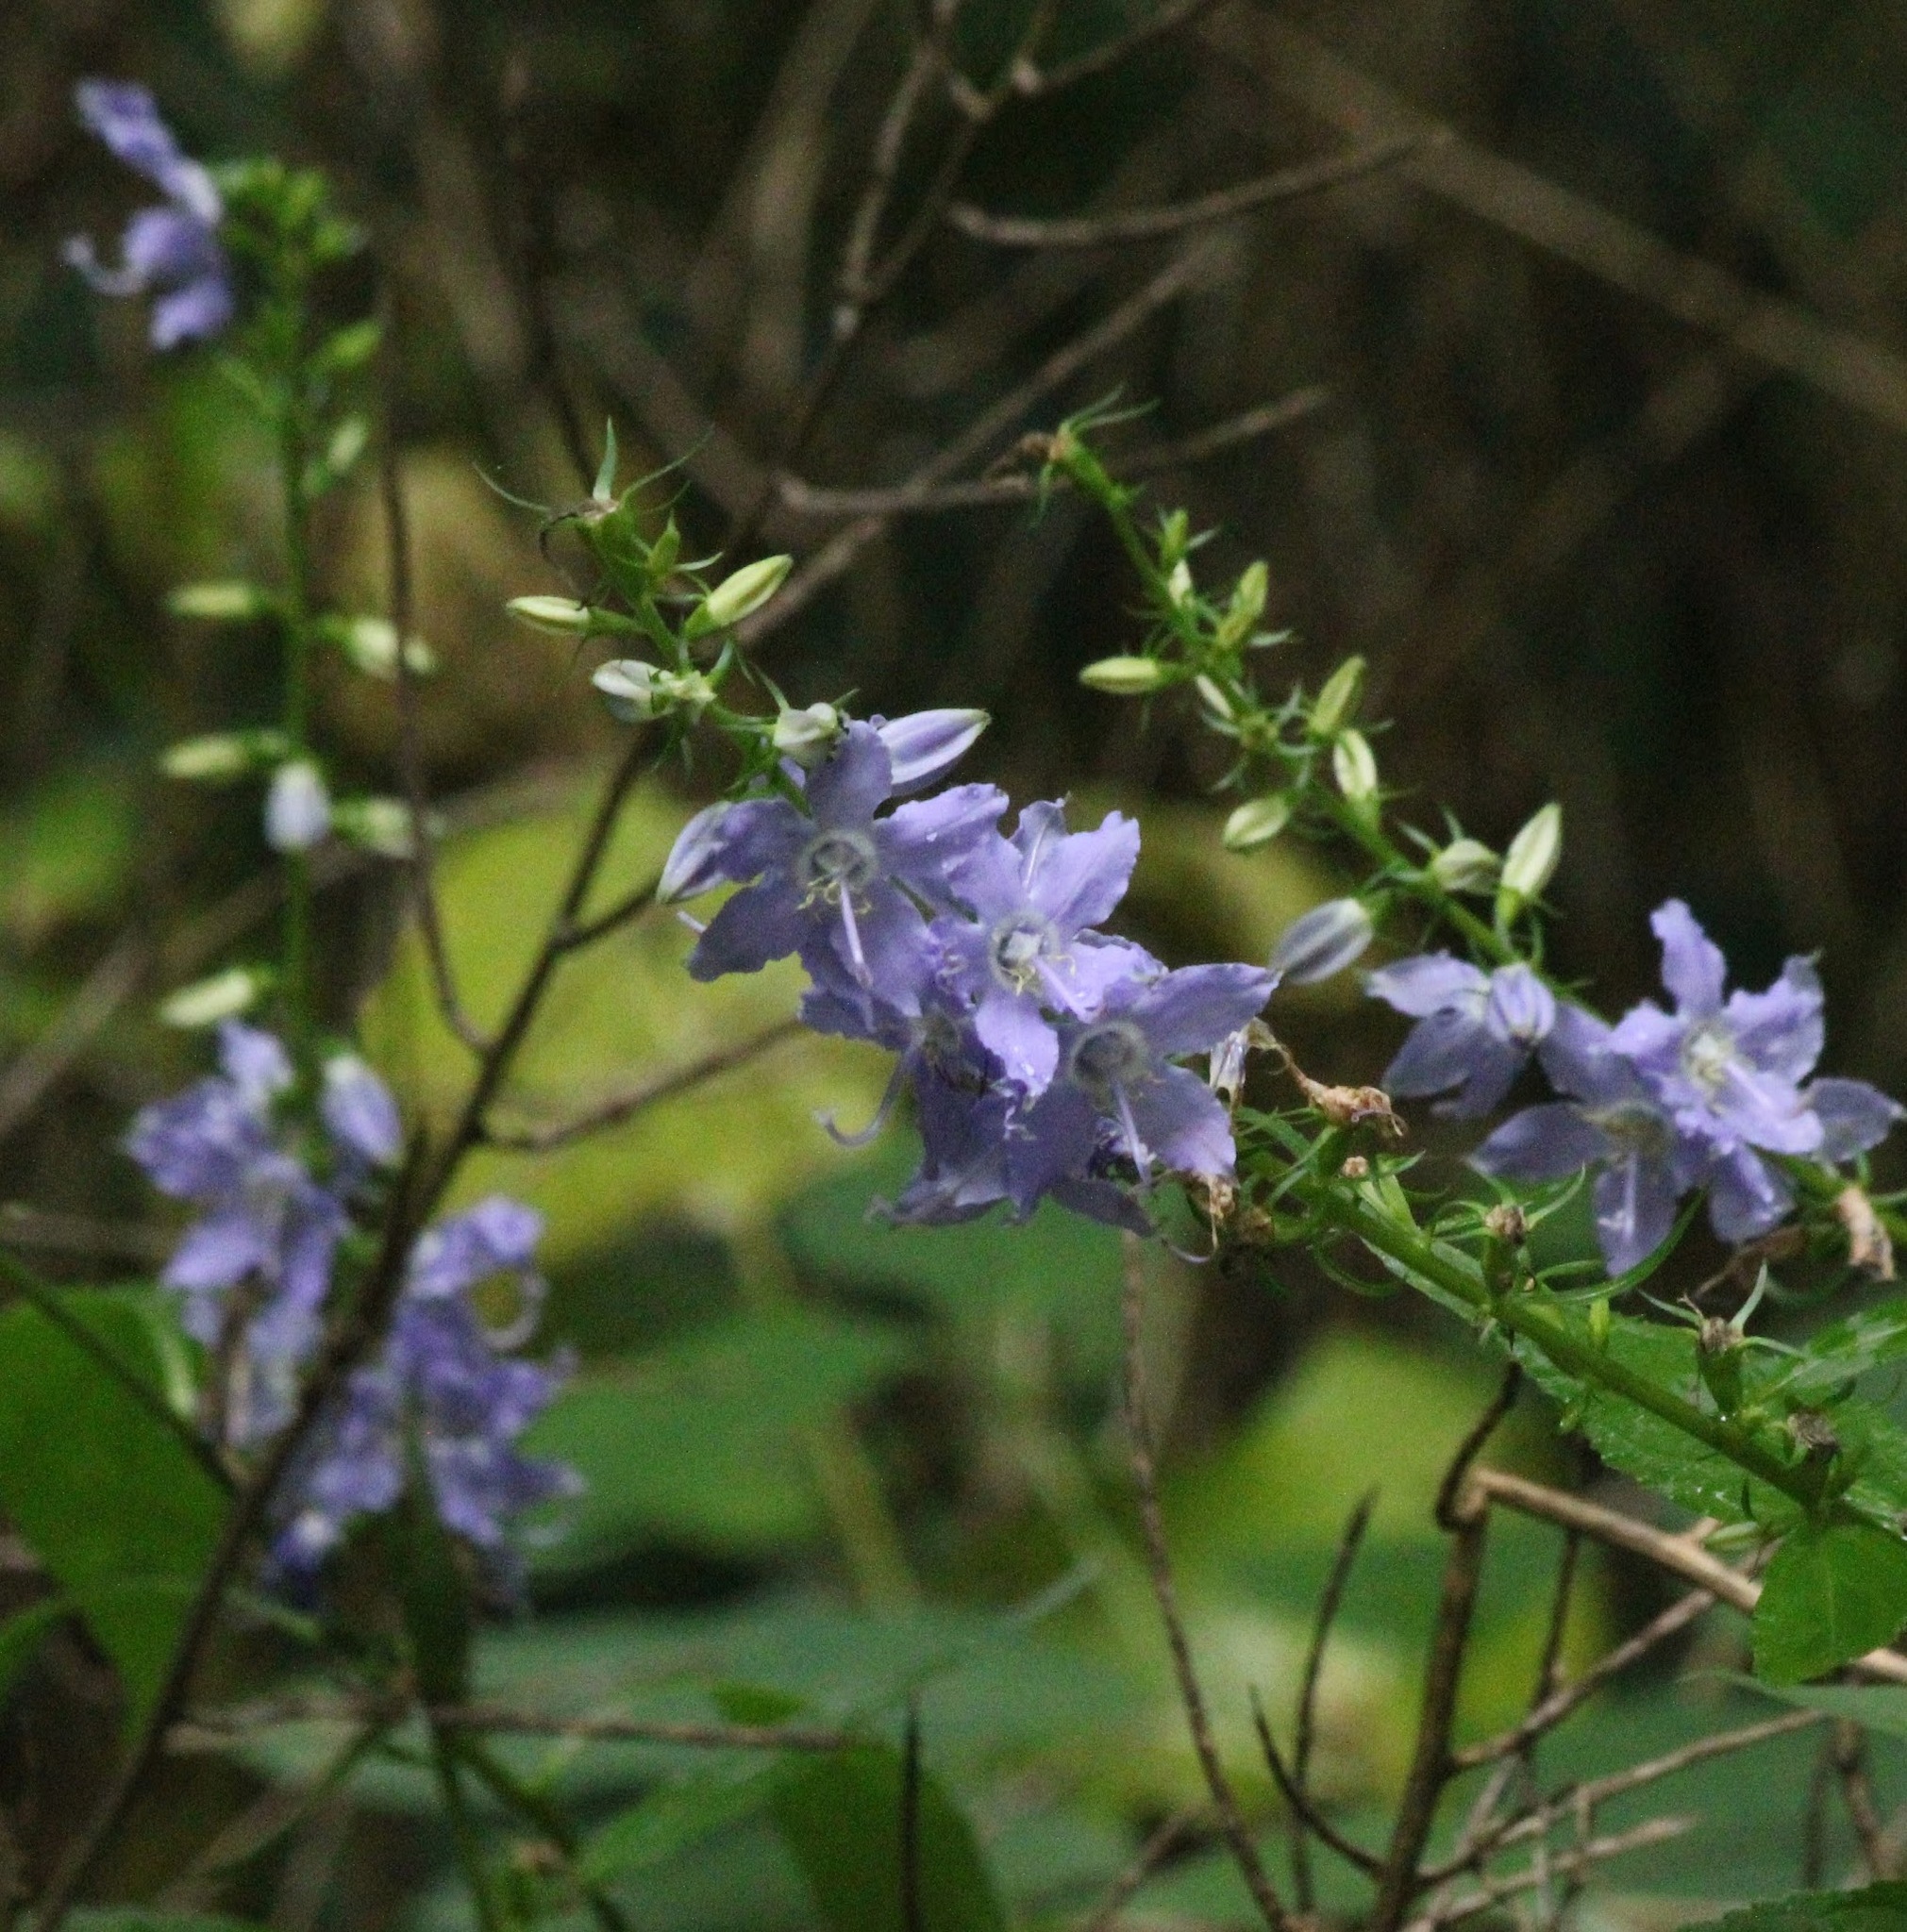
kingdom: Plantae
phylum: Tracheophyta
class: Magnoliopsida
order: Asterales
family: Campanulaceae
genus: Campanulastrum
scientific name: Campanulastrum americanum
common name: American bellflower
